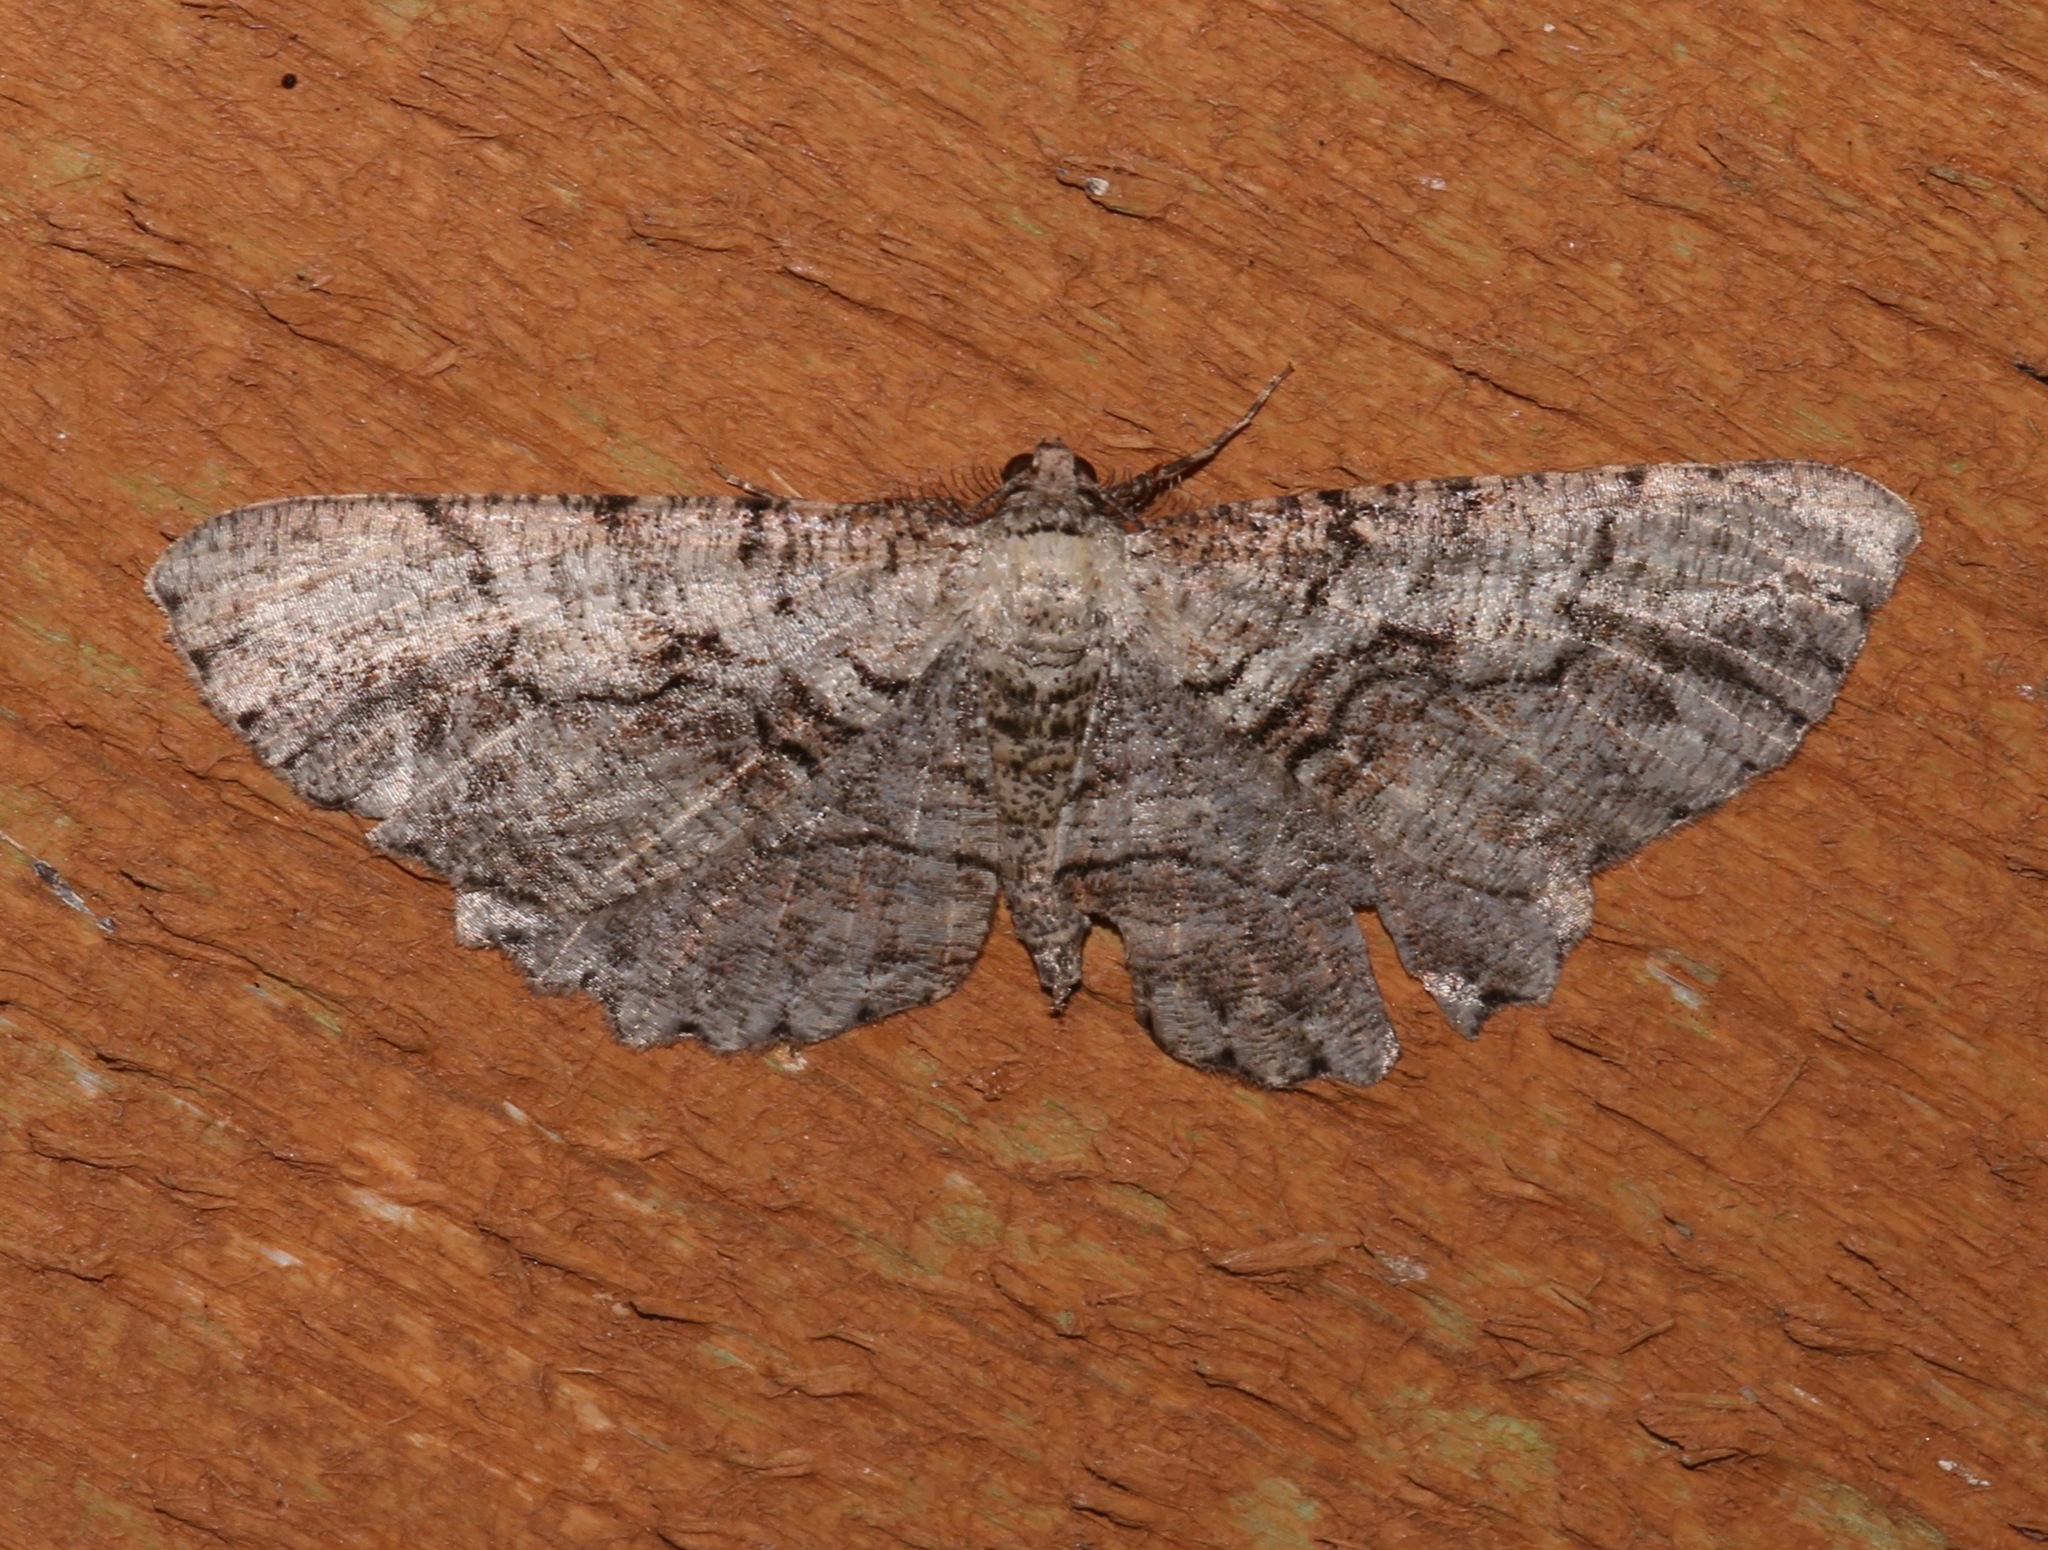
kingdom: Animalia
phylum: Arthropoda
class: Insecta
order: Lepidoptera
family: Geometridae
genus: Cymatophora
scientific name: Cymatophora approximaria
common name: Giant gray moth
